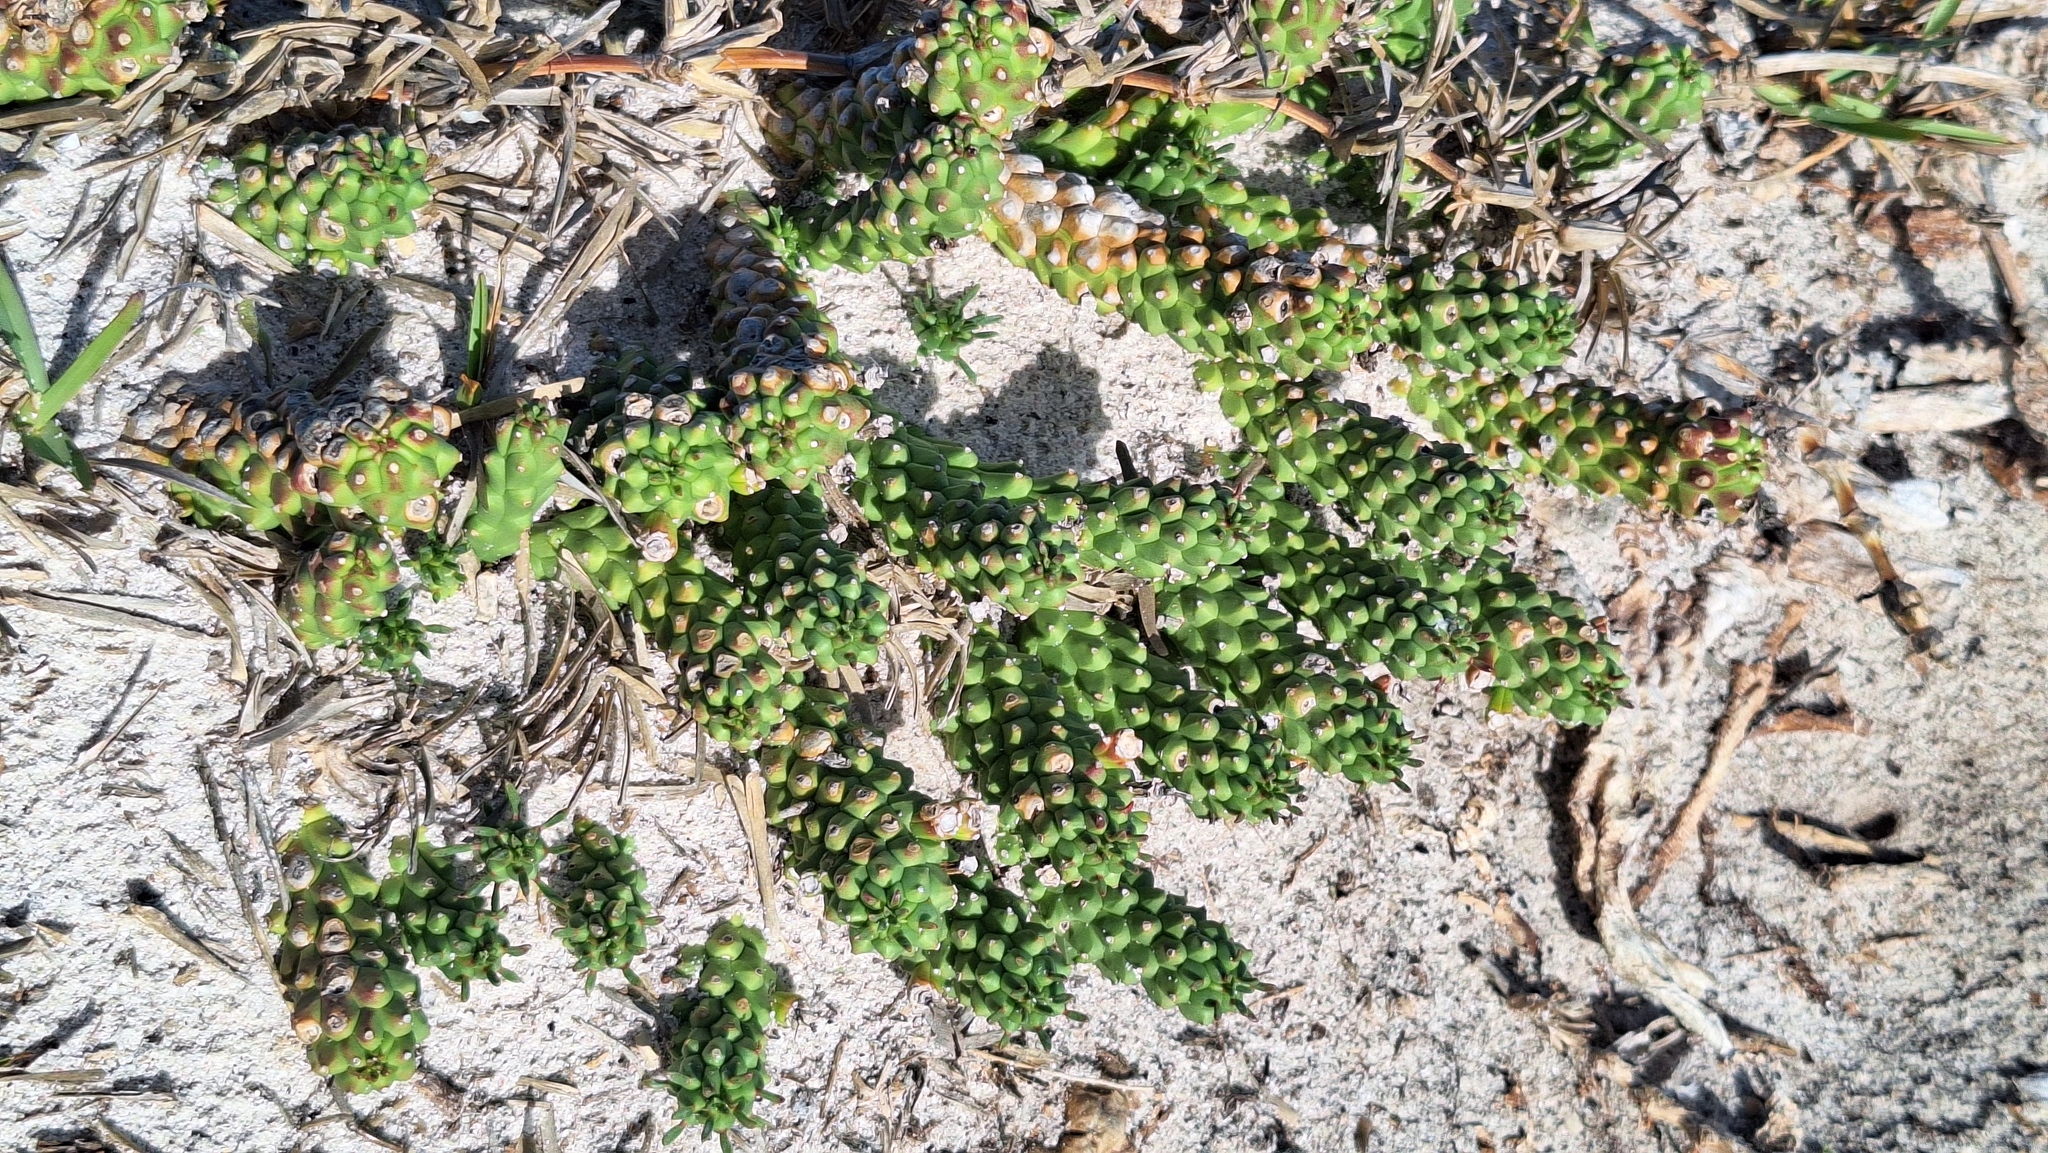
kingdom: Plantae
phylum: Tracheophyta
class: Magnoliopsida
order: Malpighiales
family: Euphorbiaceae
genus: Euphorbia
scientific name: Euphorbia caput-medusae
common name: Medusa's-head
